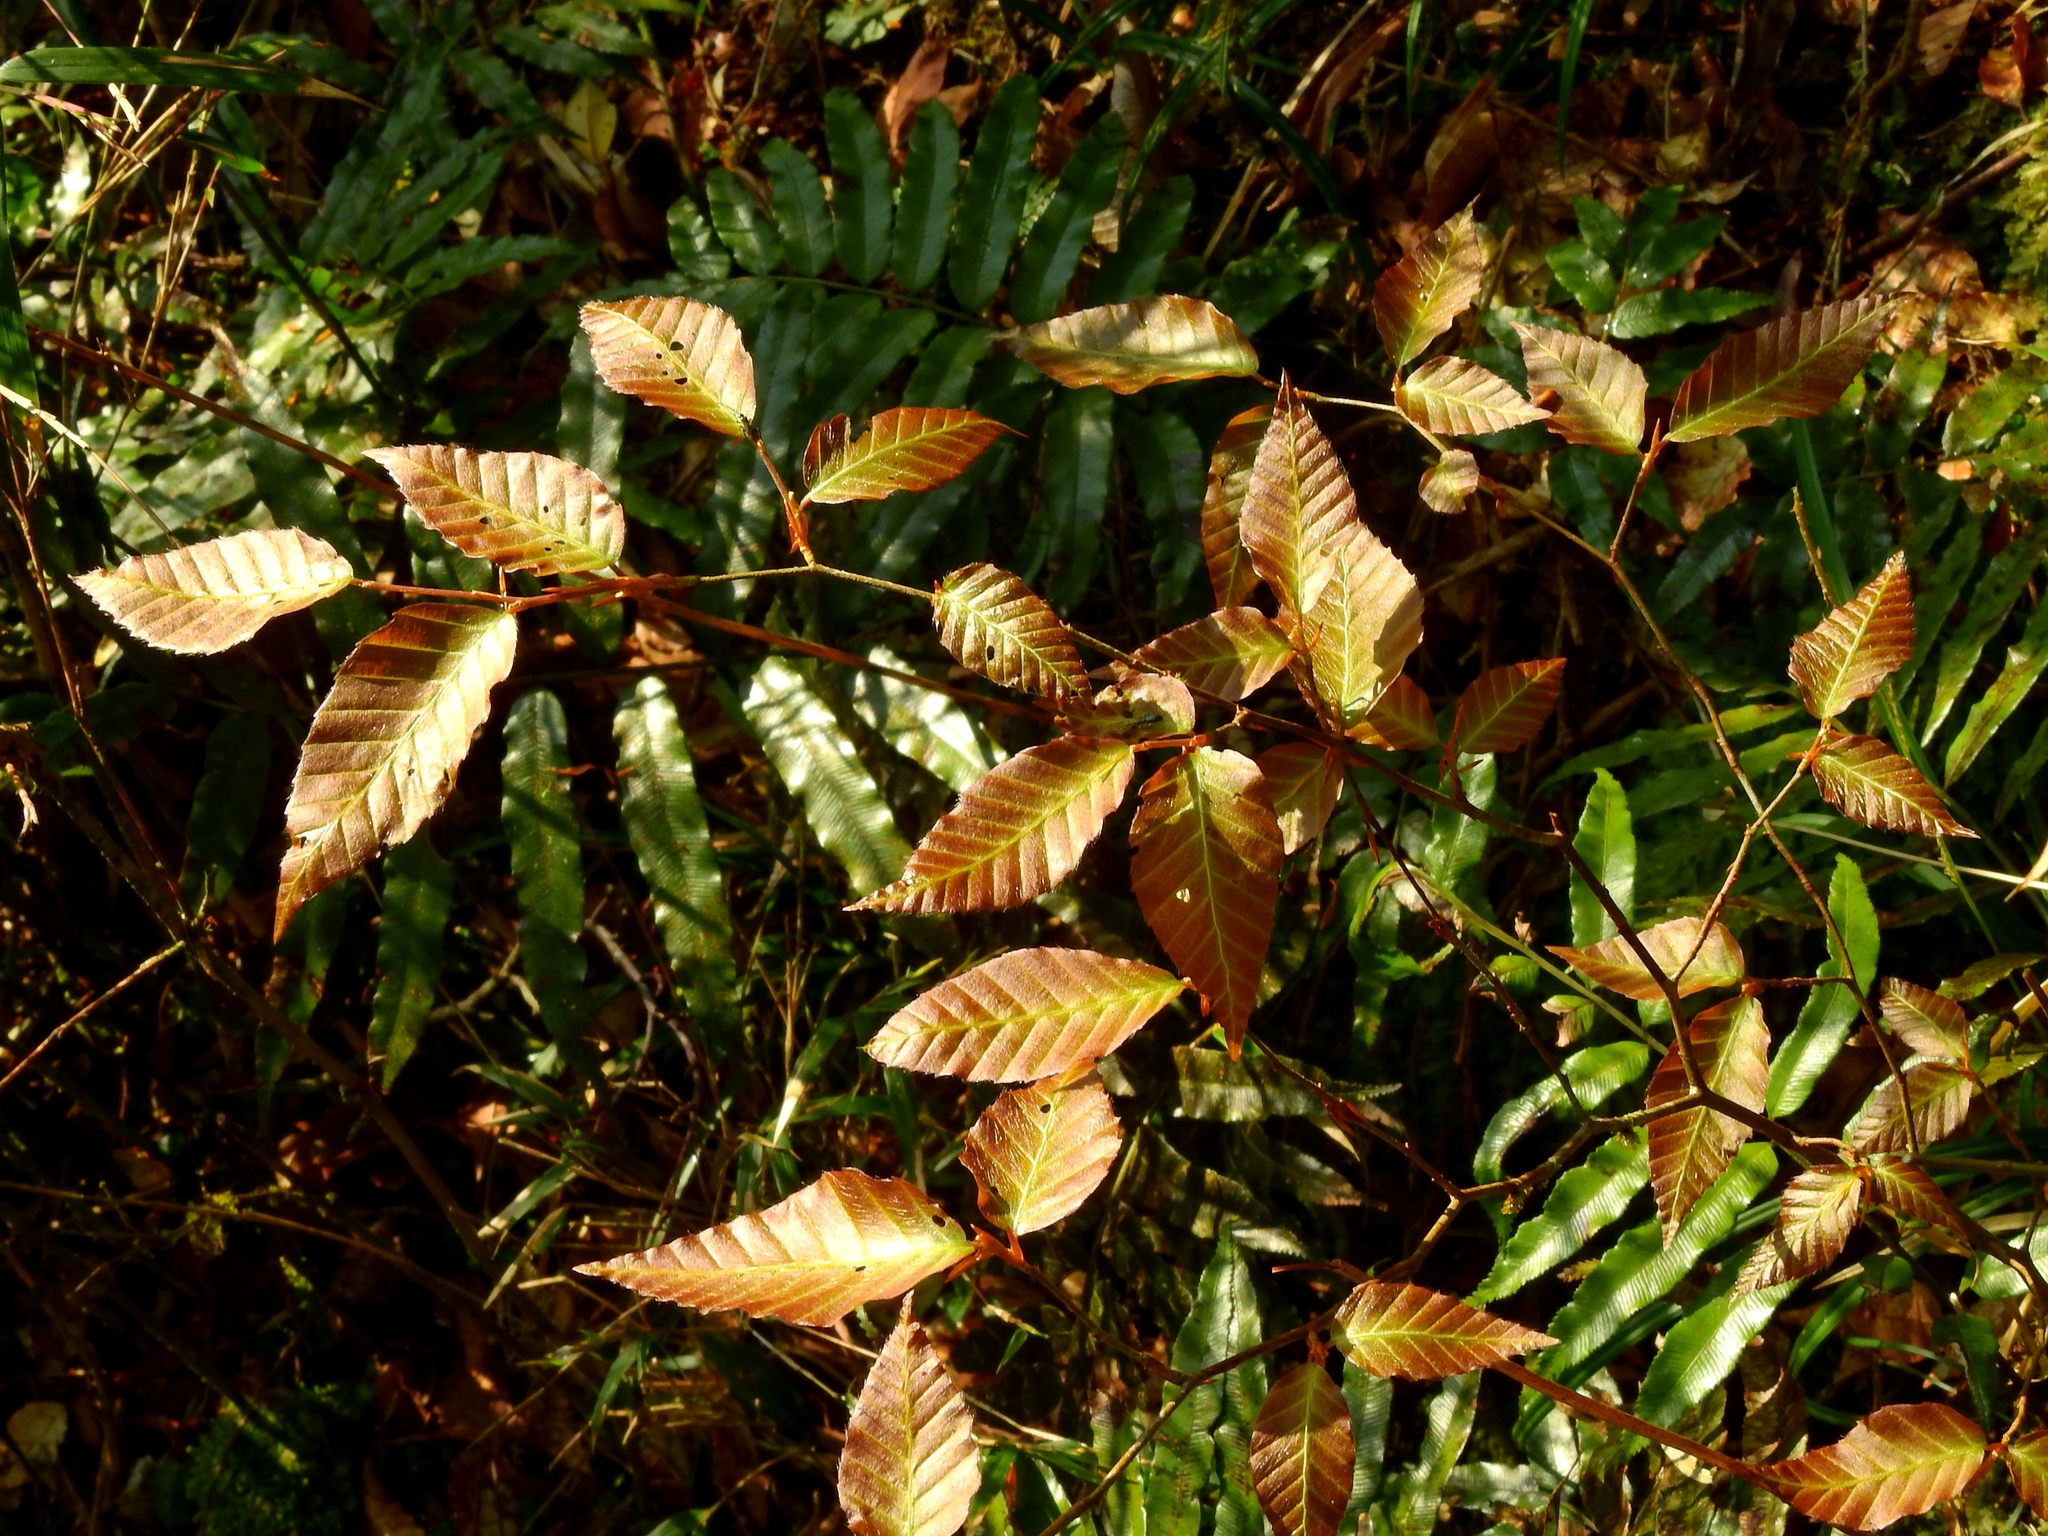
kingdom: Plantae
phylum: Tracheophyta
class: Magnoliopsida
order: Fagales
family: Fagaceae
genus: Fagus
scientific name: Fagus hayatae
